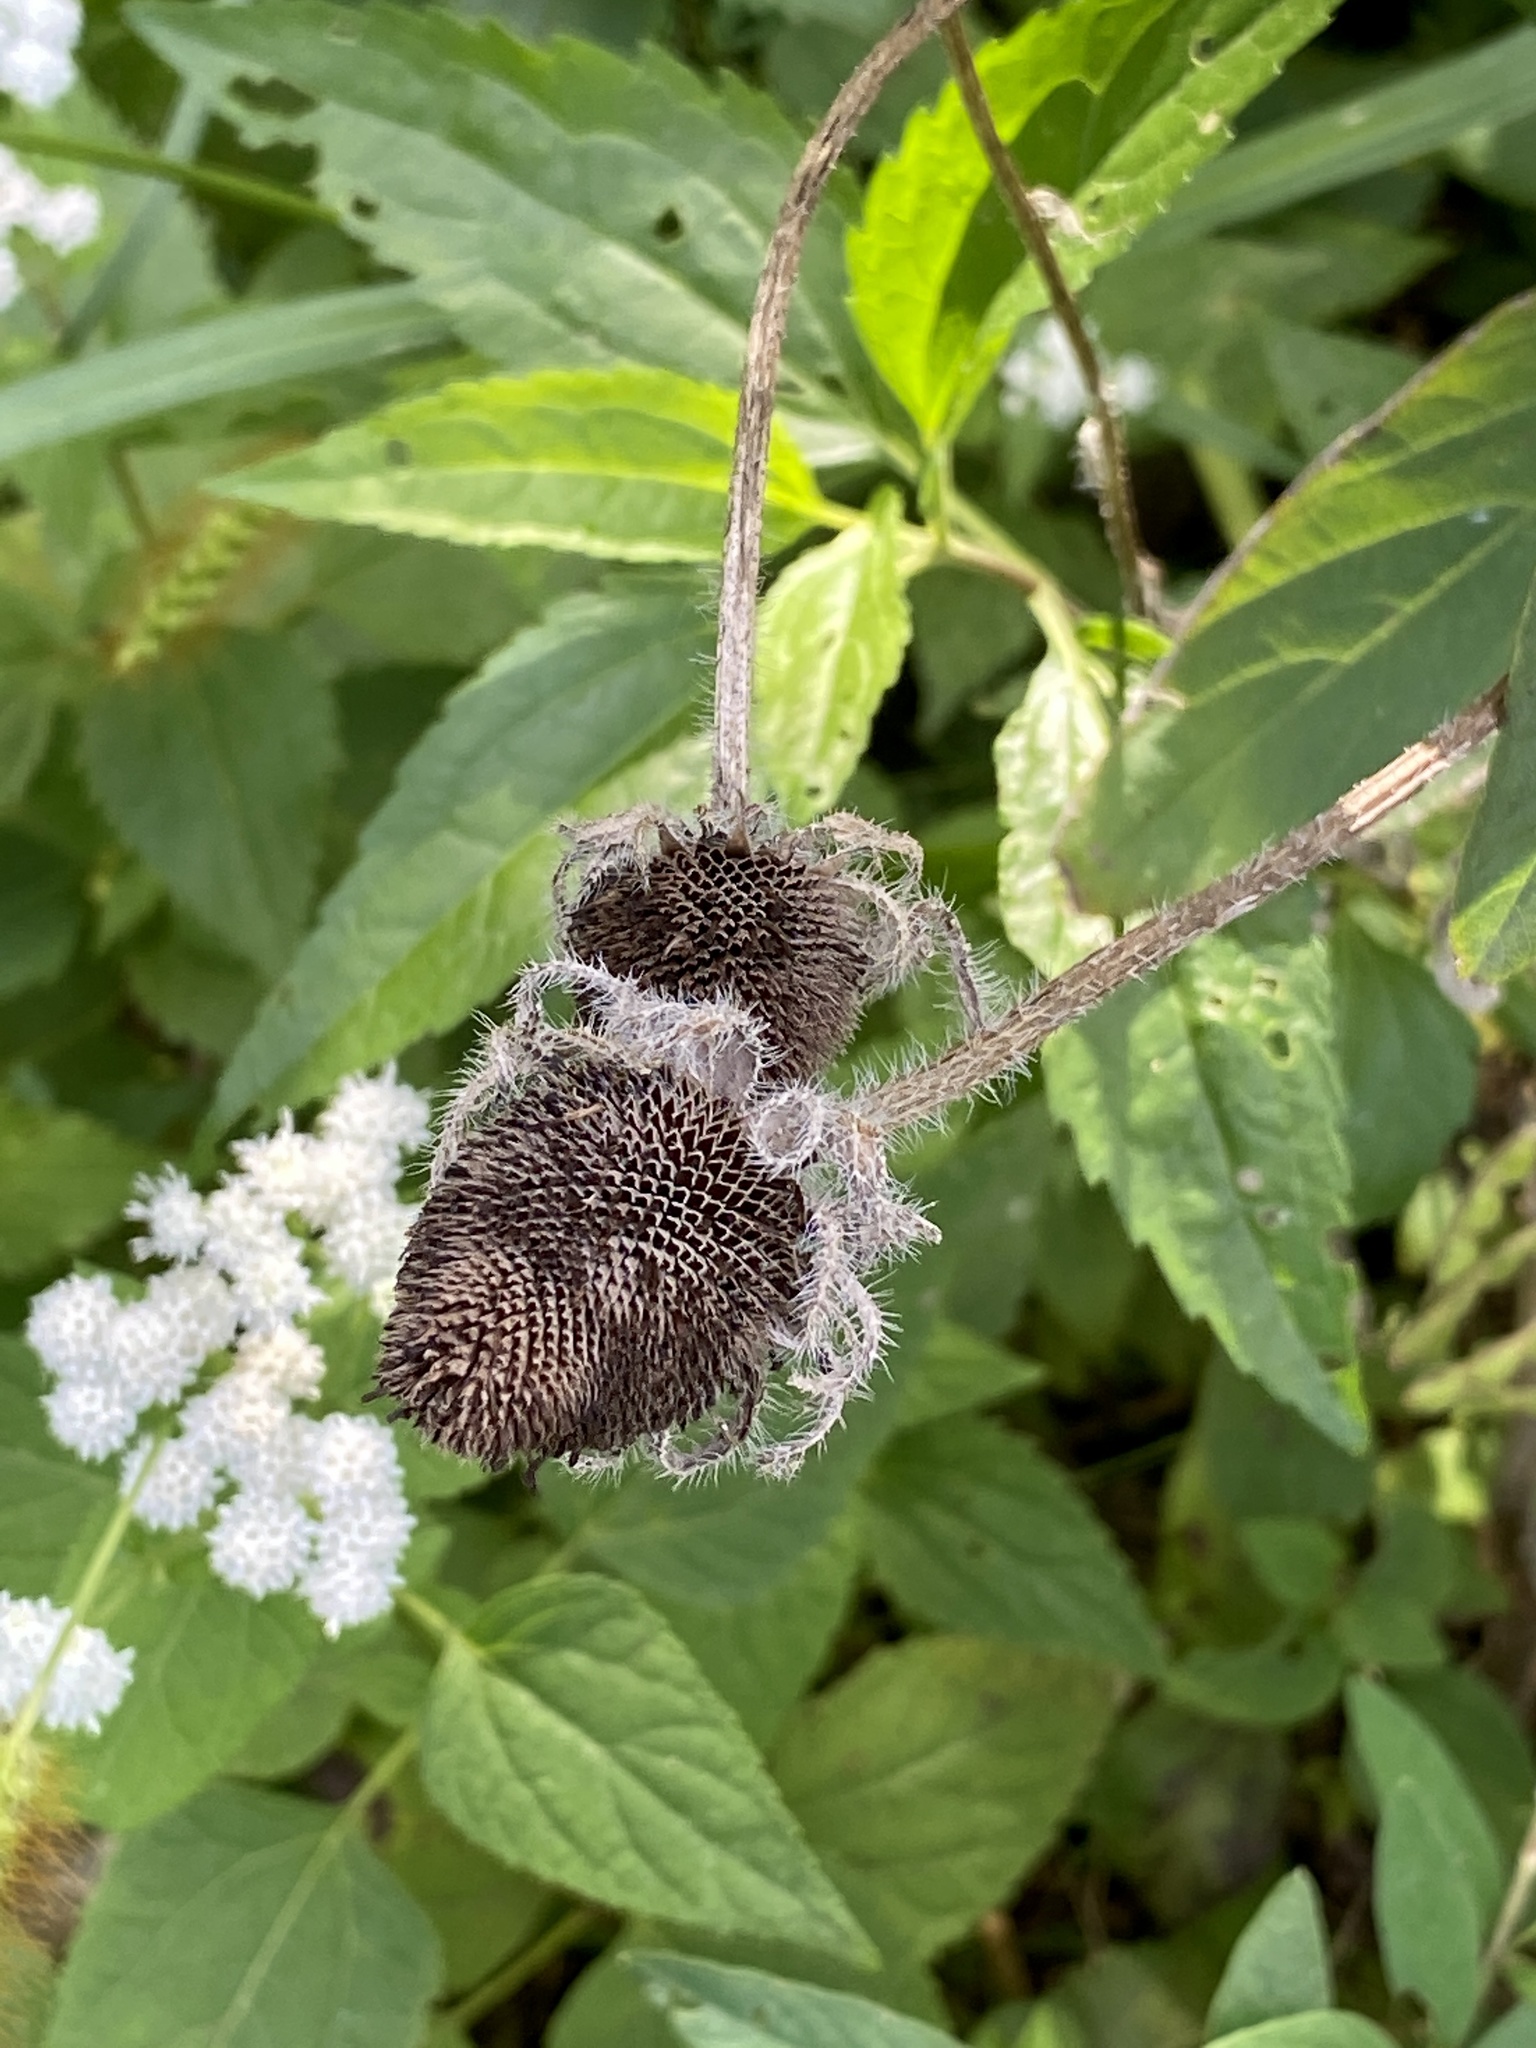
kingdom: Plantae
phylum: Tracheophyta
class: Magnoliopsida
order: Asterales
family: Asteraceae
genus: Rudbeckia
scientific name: Rudbeckia hirta
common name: Black-eyed-susan
